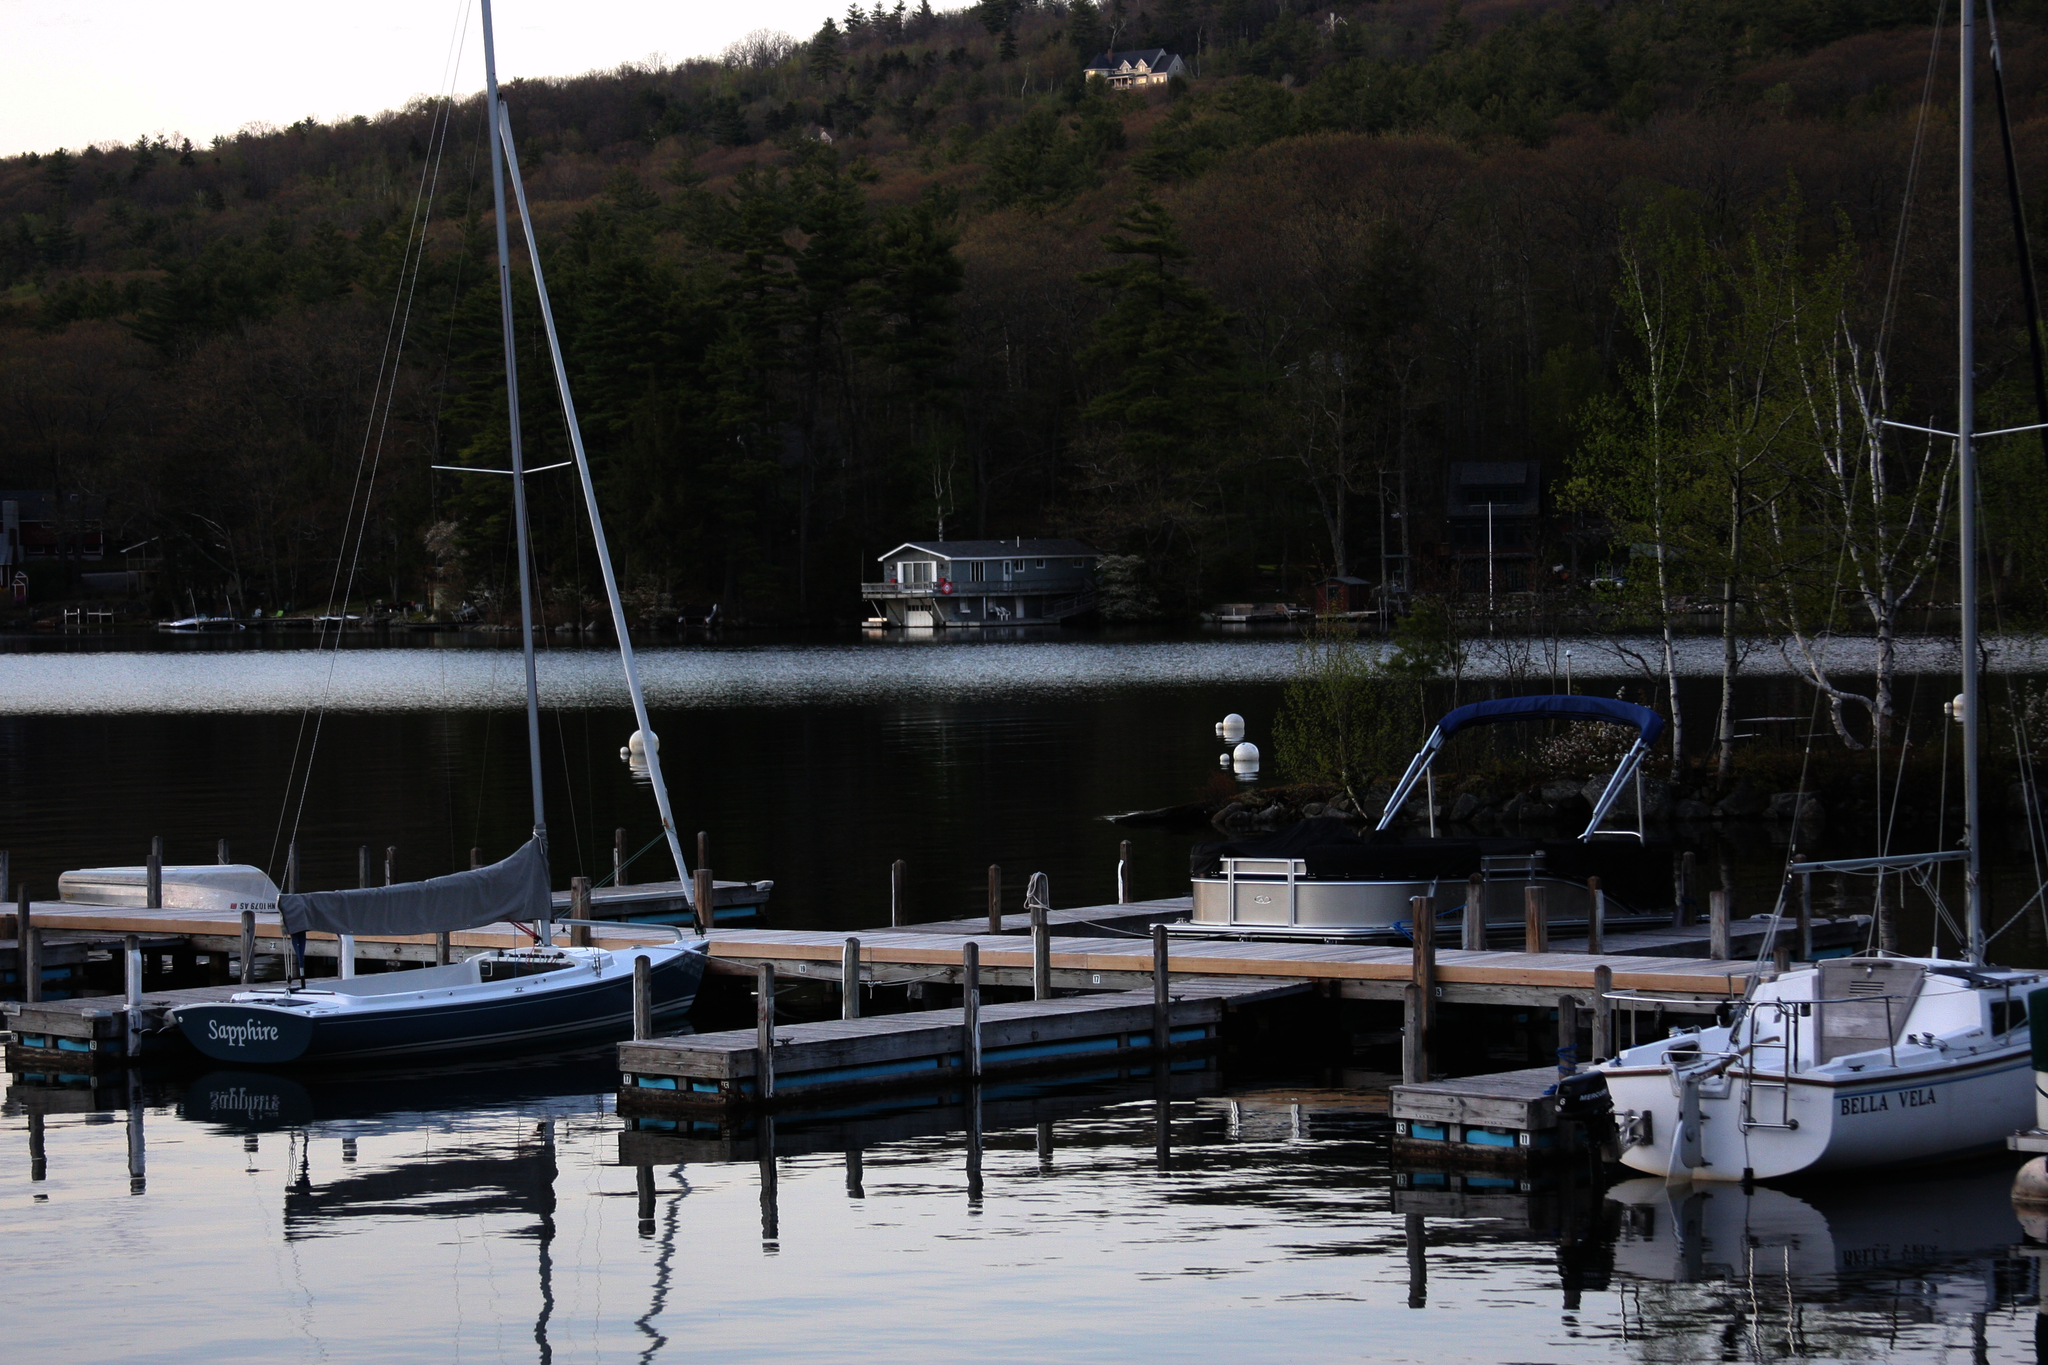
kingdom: Plantae
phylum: Tracheophyta
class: Pinopsida
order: Pinales
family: Pinaceae
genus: Pinus
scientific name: Pinus strobus
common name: Weymouth pine
